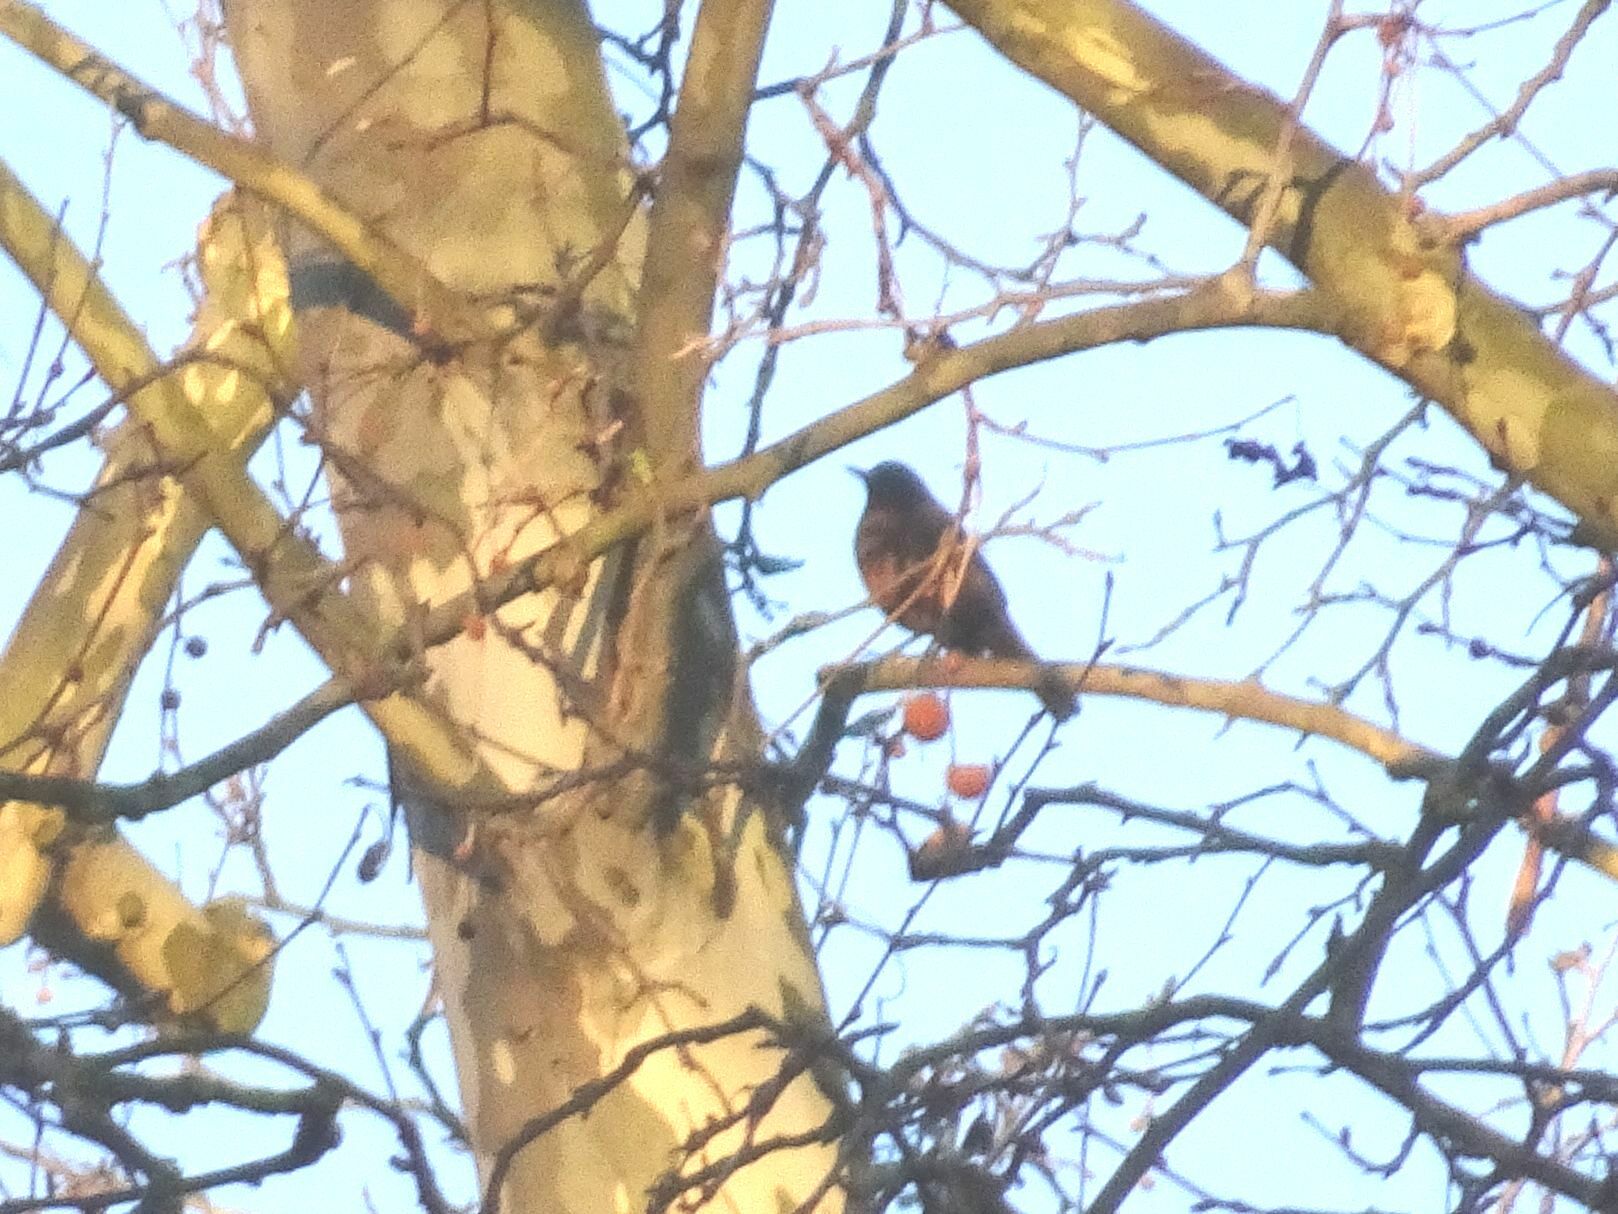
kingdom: Animalia
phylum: Chordata
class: Aves
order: Passeriformes
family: Turdidae
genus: Turdus
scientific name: Turdus merula
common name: Common blackbird
